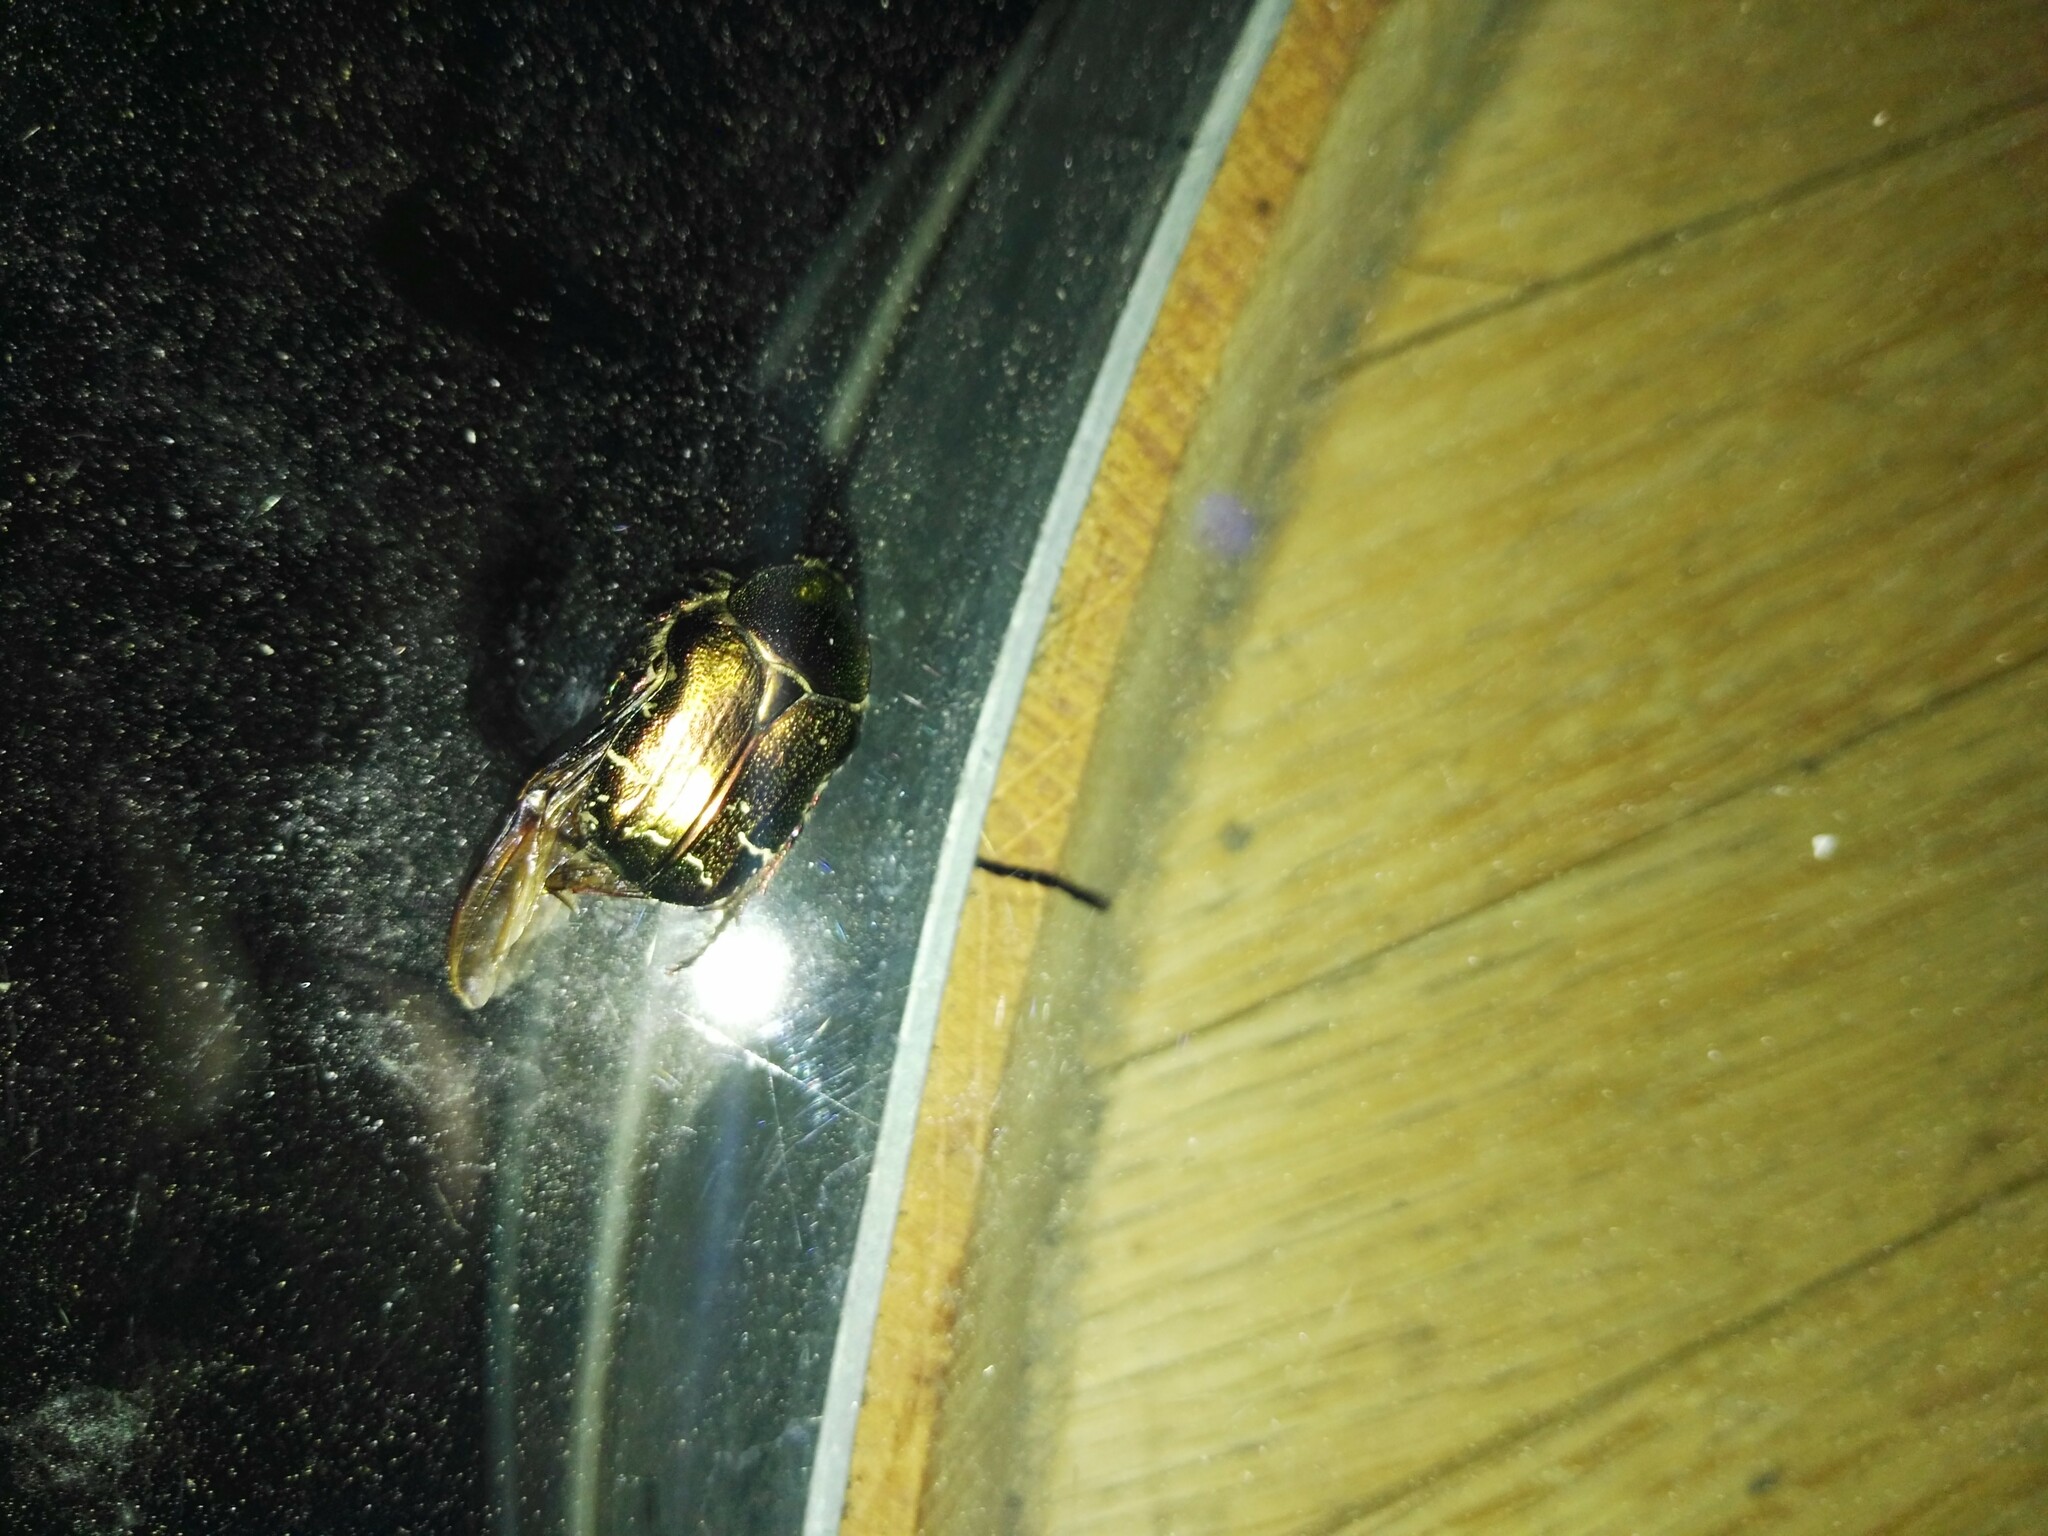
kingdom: Animalia
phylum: Arthropoda
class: Insecta
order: Coleoptera
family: Scarabaeidae
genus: Cetonia
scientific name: Cetonia aurata
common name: Rose chafer
